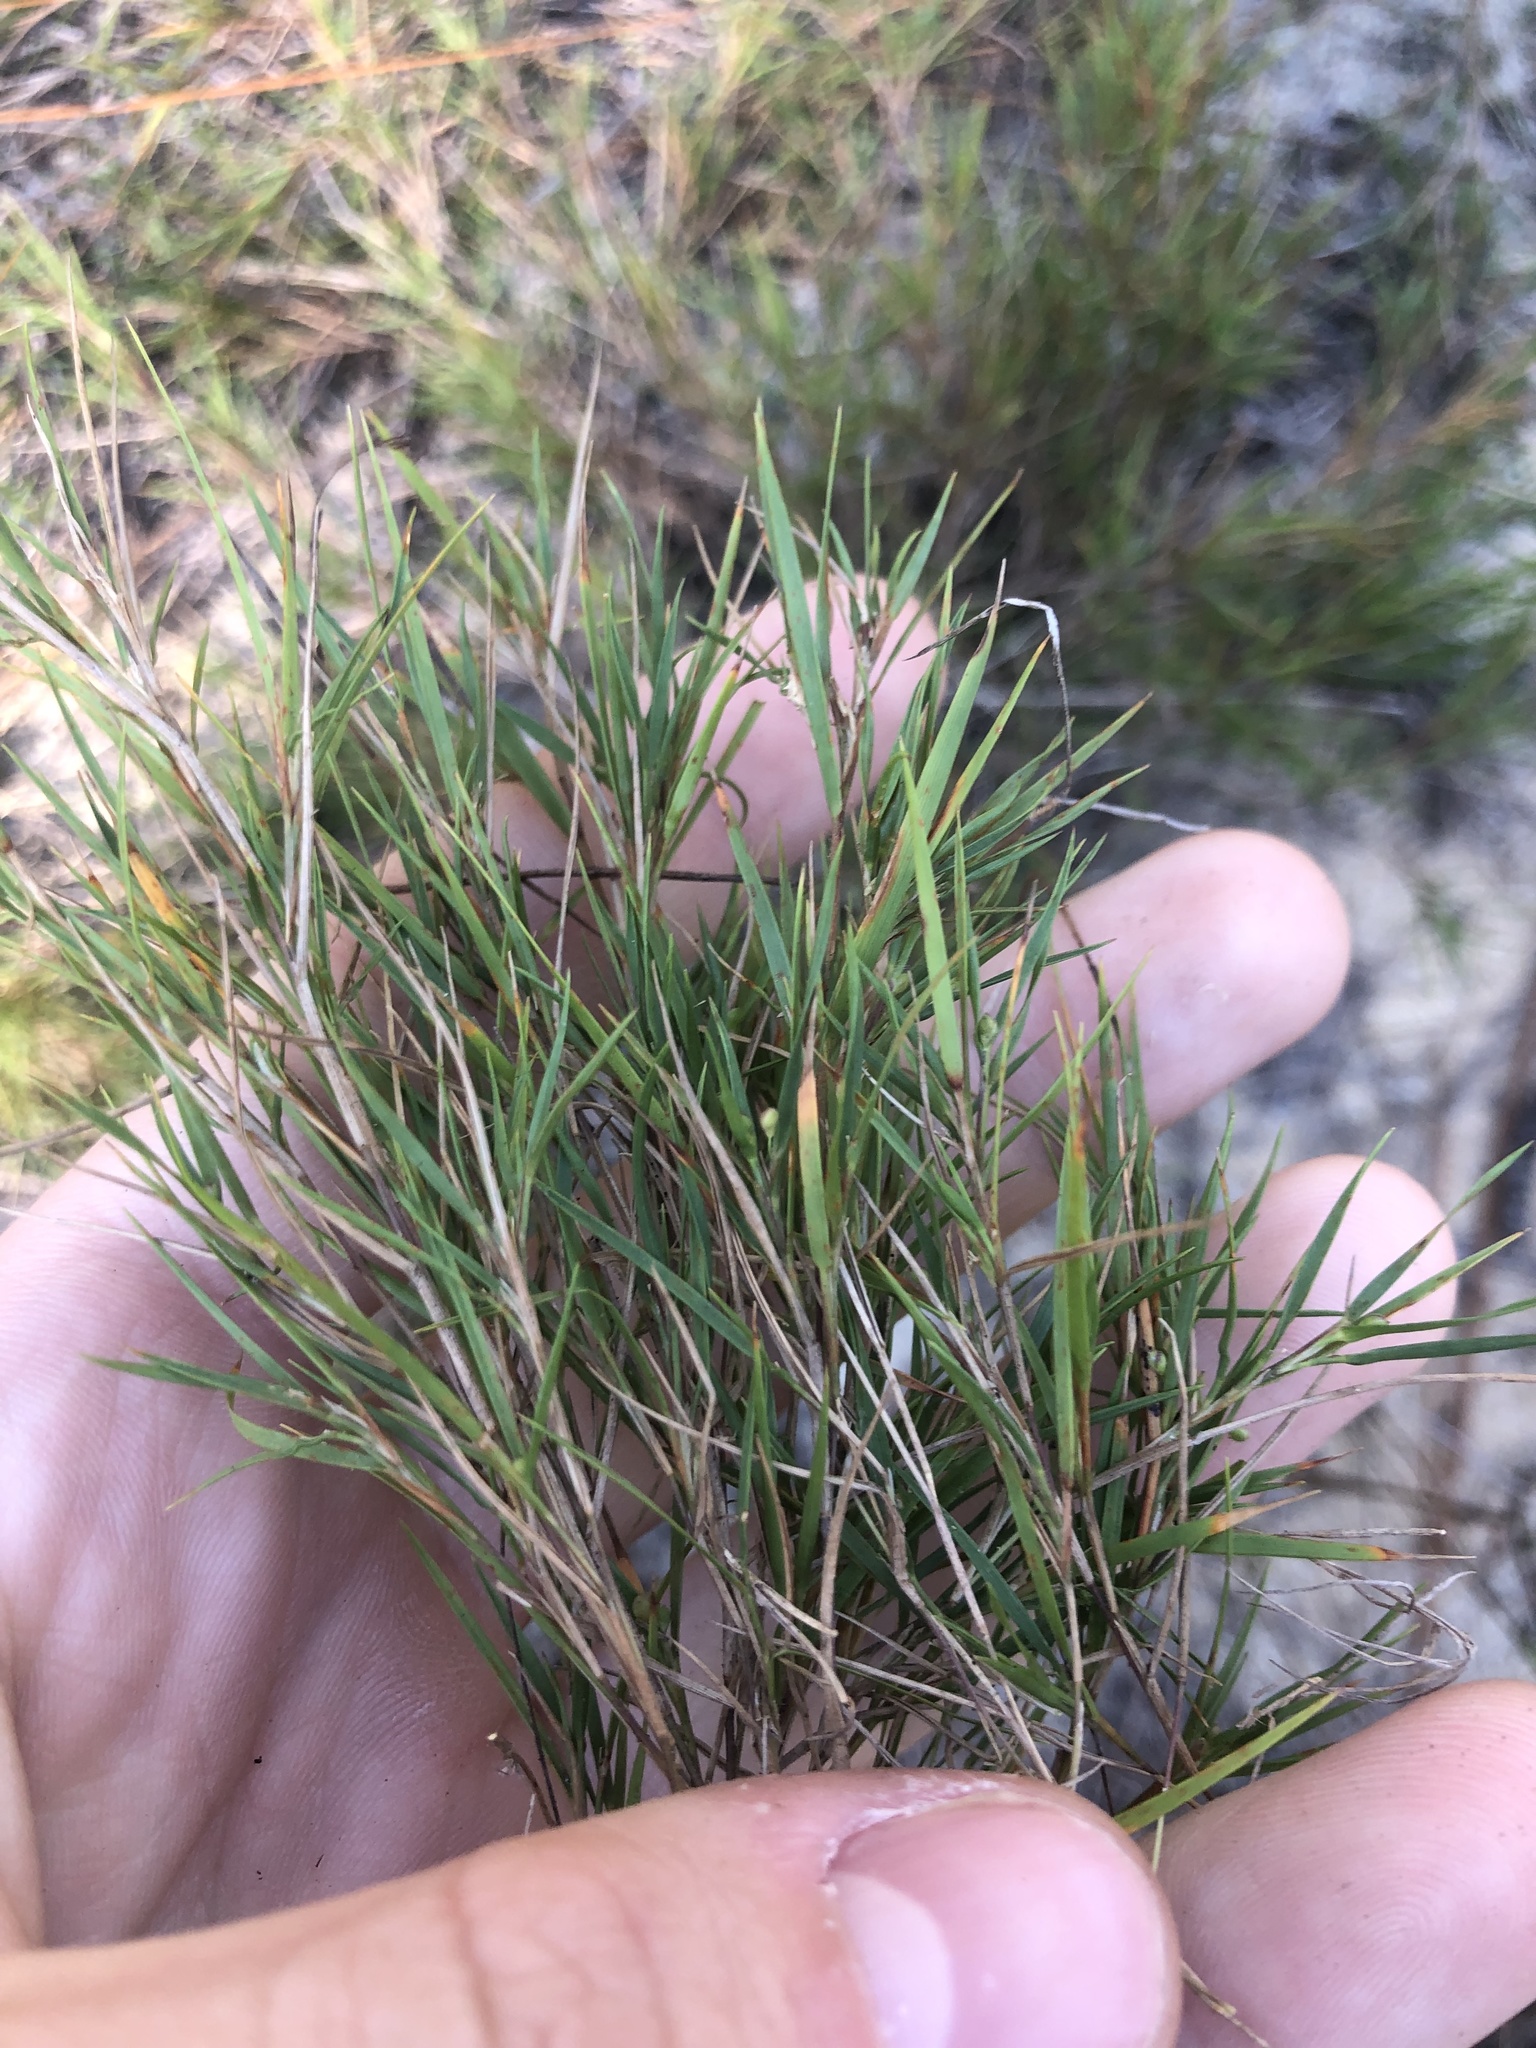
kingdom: Plantae
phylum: Tracheophyta
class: Liliopsida
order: Poales
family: Poaceae
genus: Dichanthelium
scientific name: Dichanthelium arenicoloides
